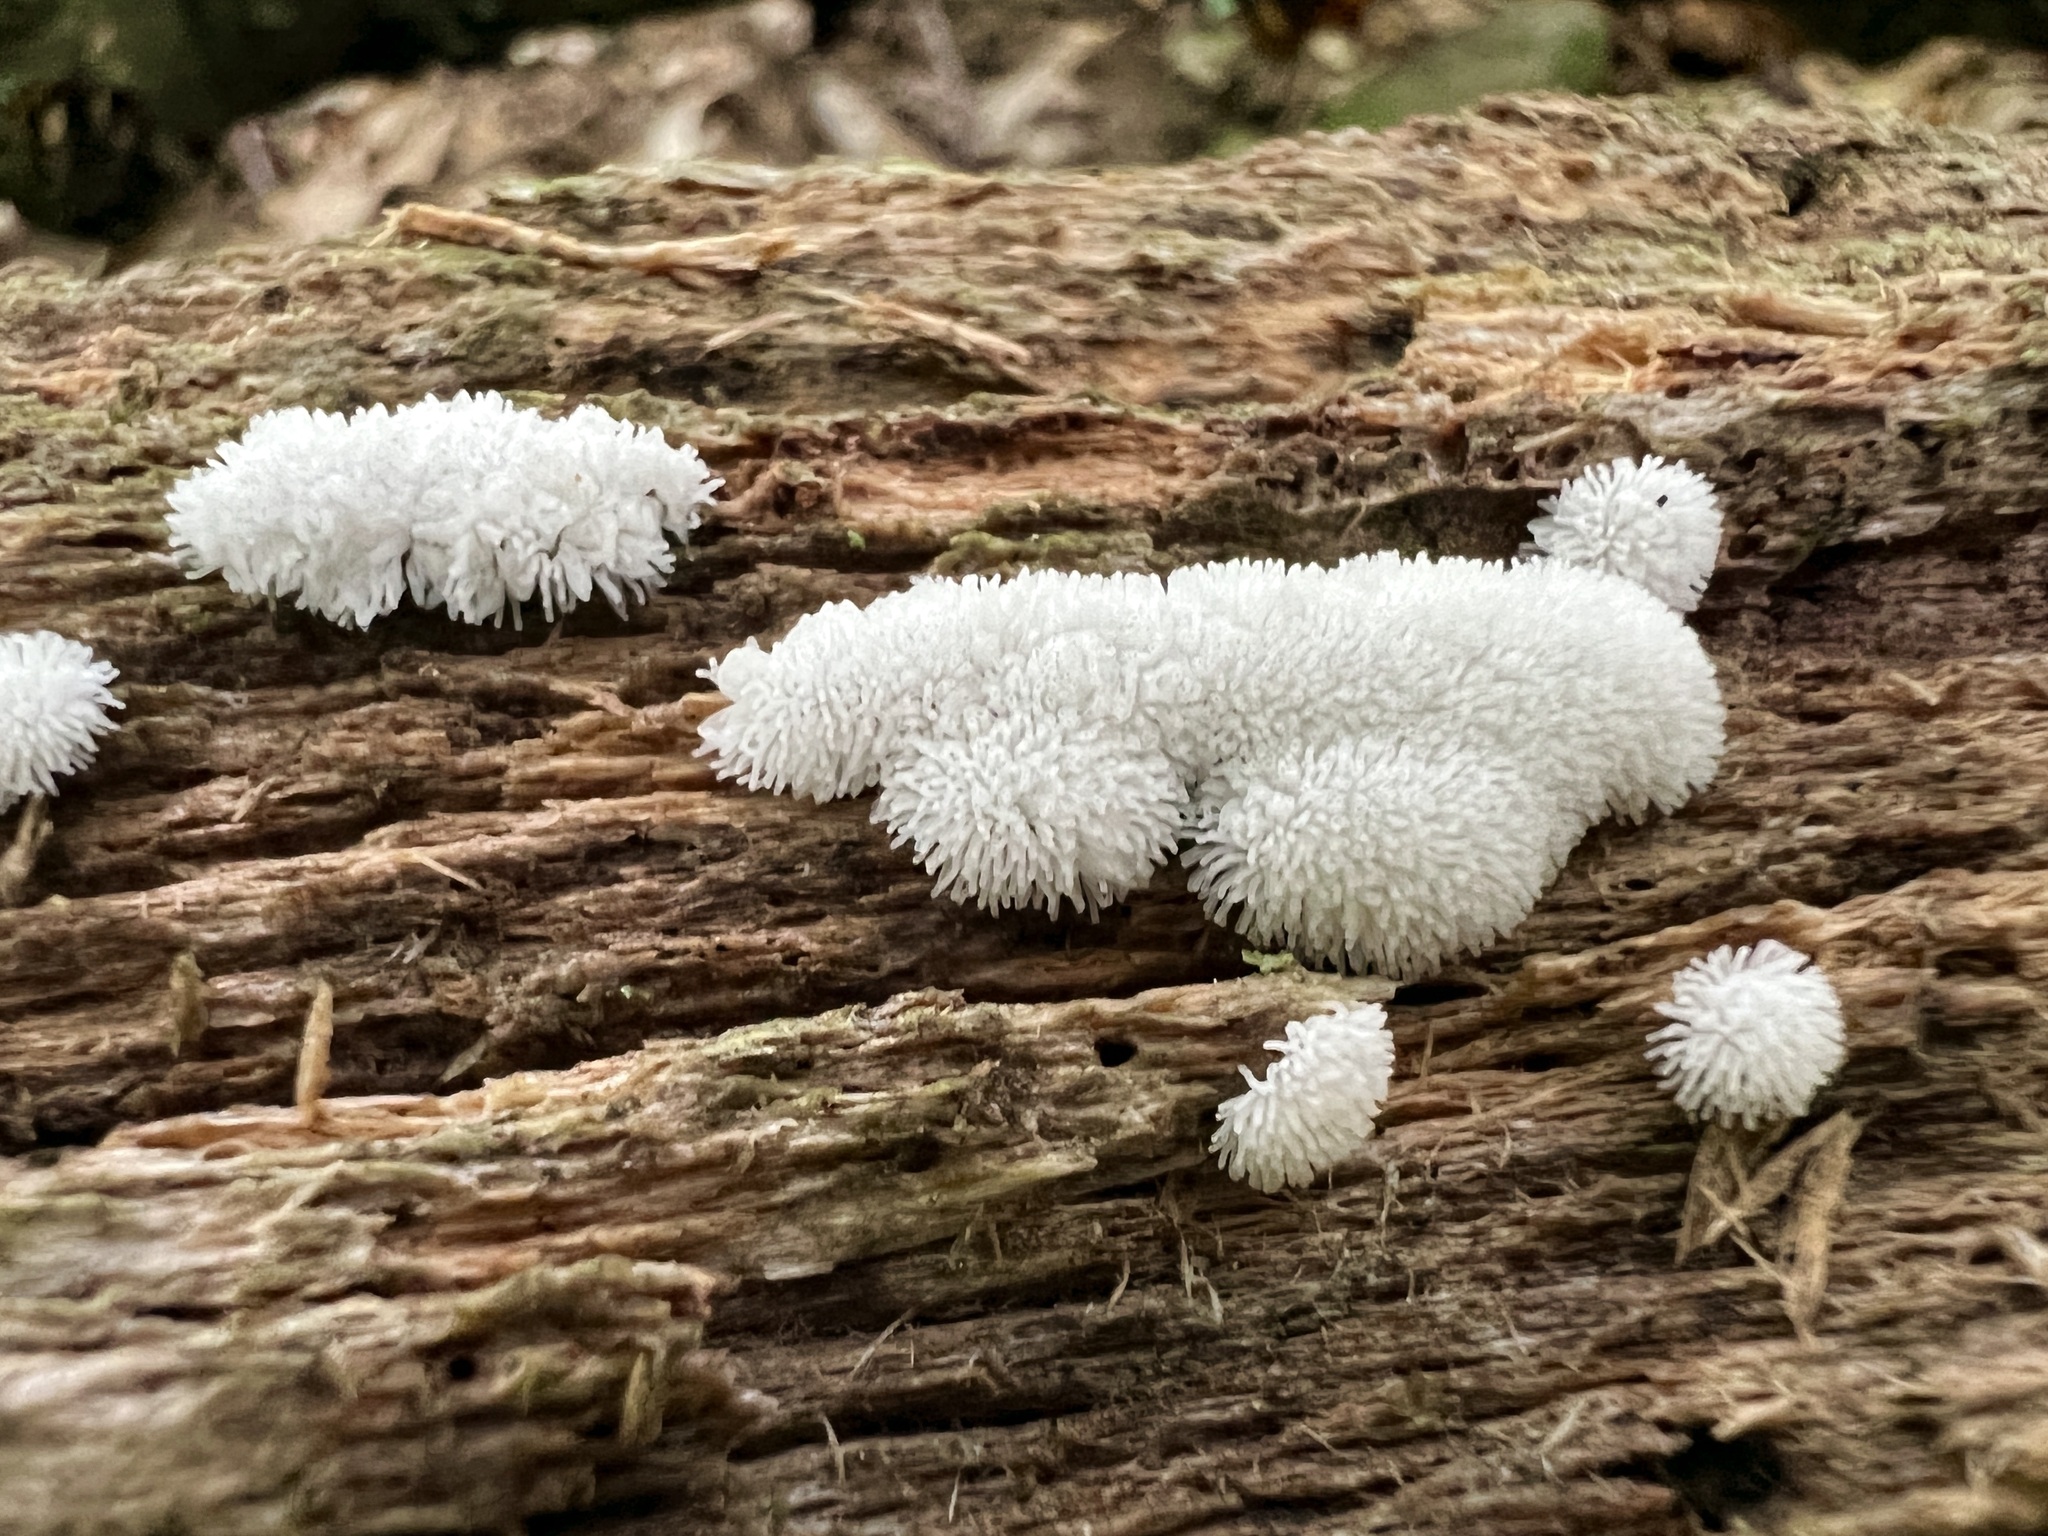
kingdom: Protozoa
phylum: Mycetozoa
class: Protosteliomycetes
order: Ceratiomyxales
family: Ceratiomyxaceae
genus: Ceratiomyxa
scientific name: Ceratiomyxa fruticulosa
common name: Honeycomb coral slime mold
